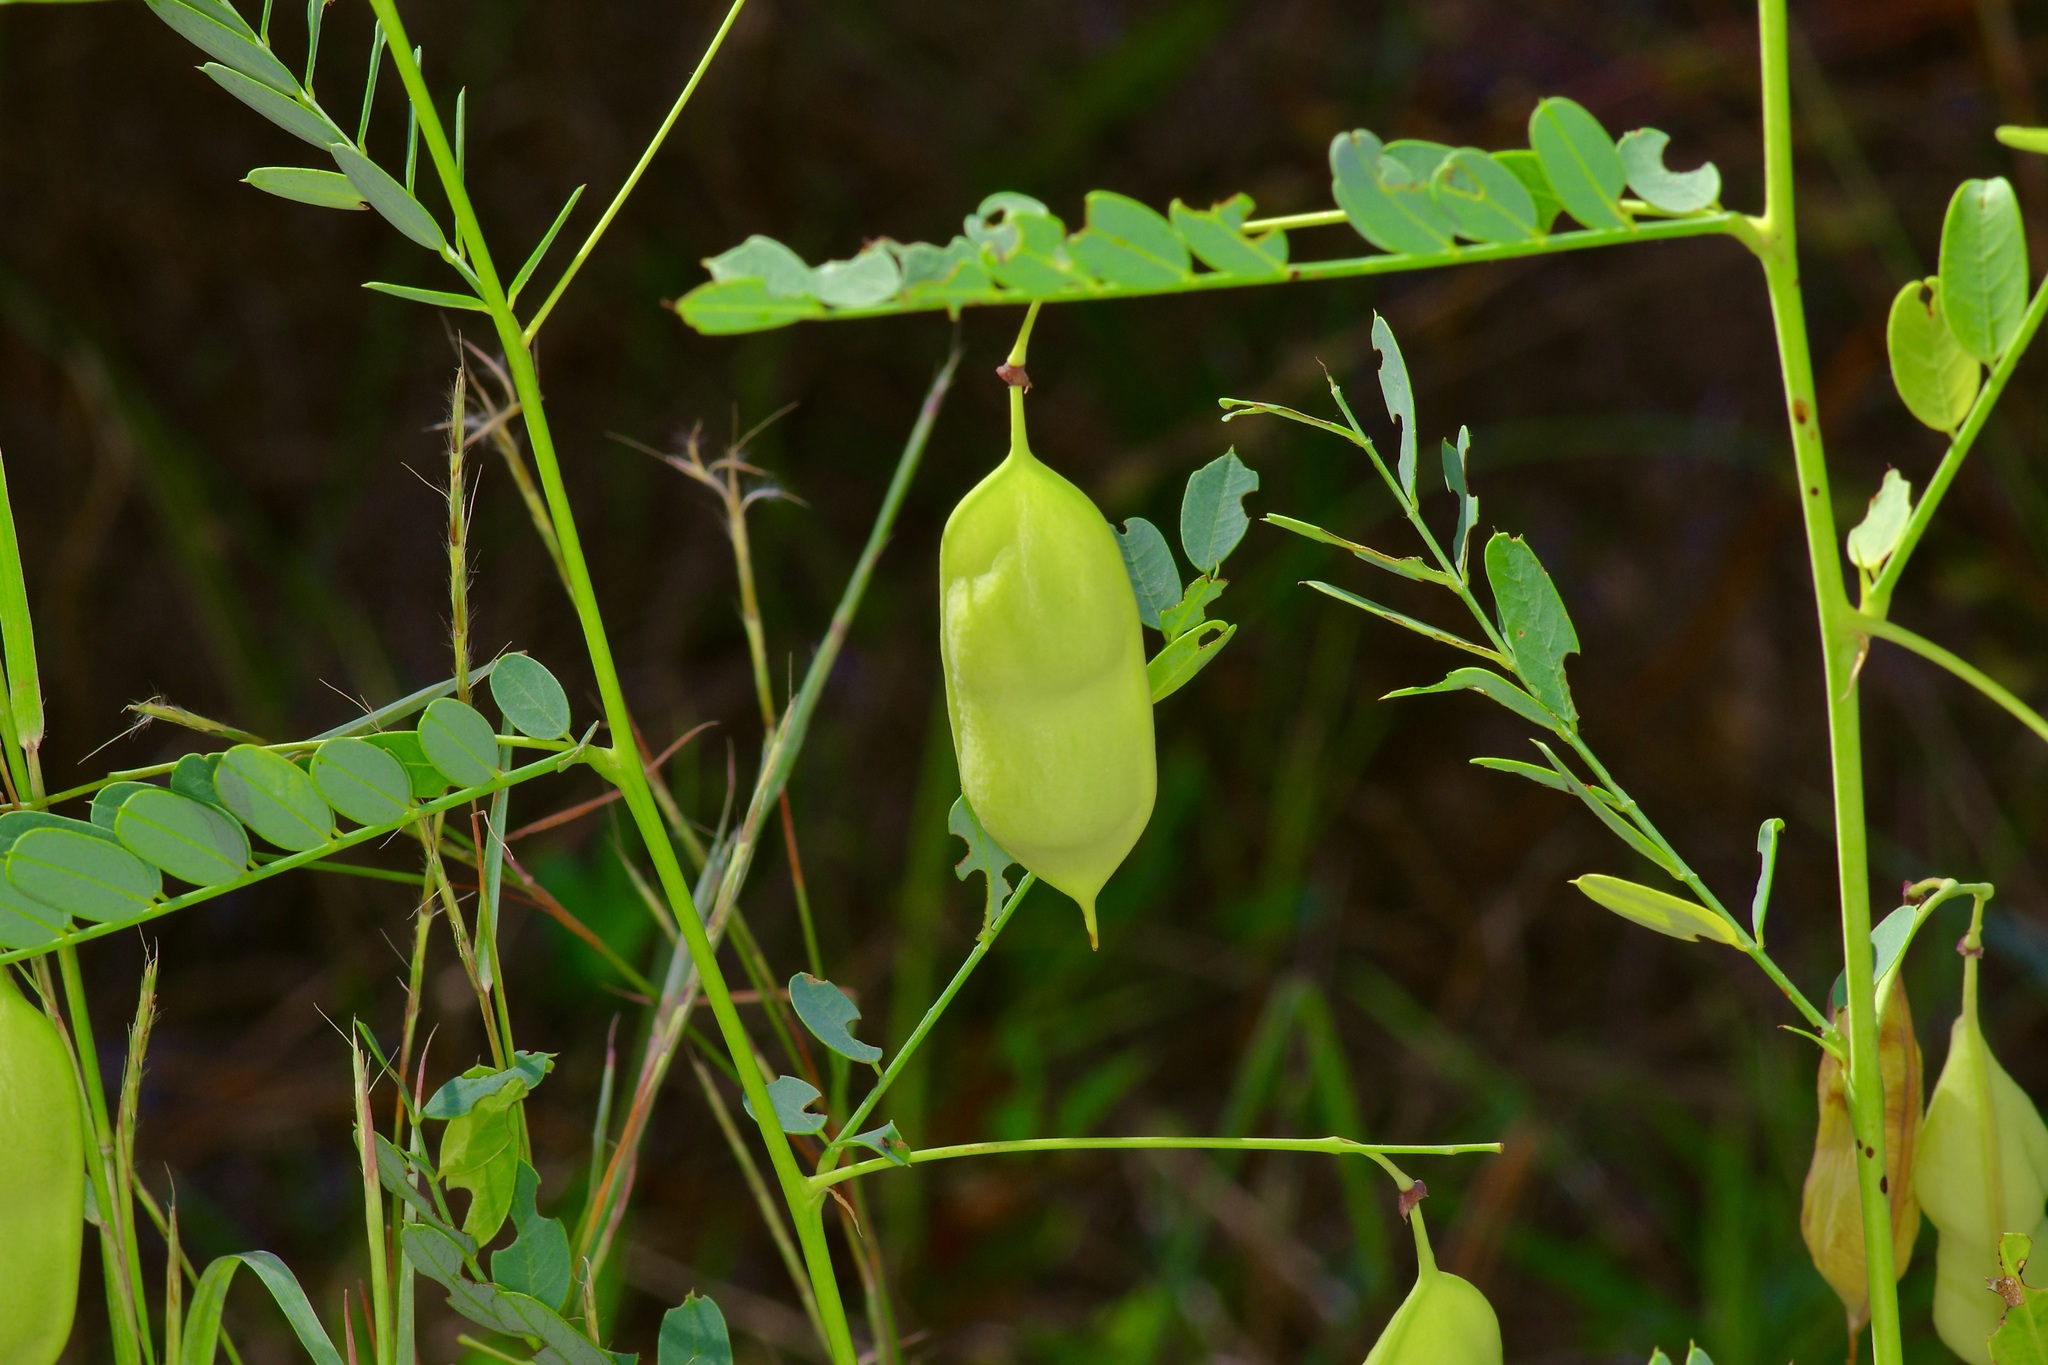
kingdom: Plantae
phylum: Tracheophyta
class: Magnoliopsida
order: Fabales
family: Fabaceae
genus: Sesbania
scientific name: Sesbania vesicaria
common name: Bagpod
